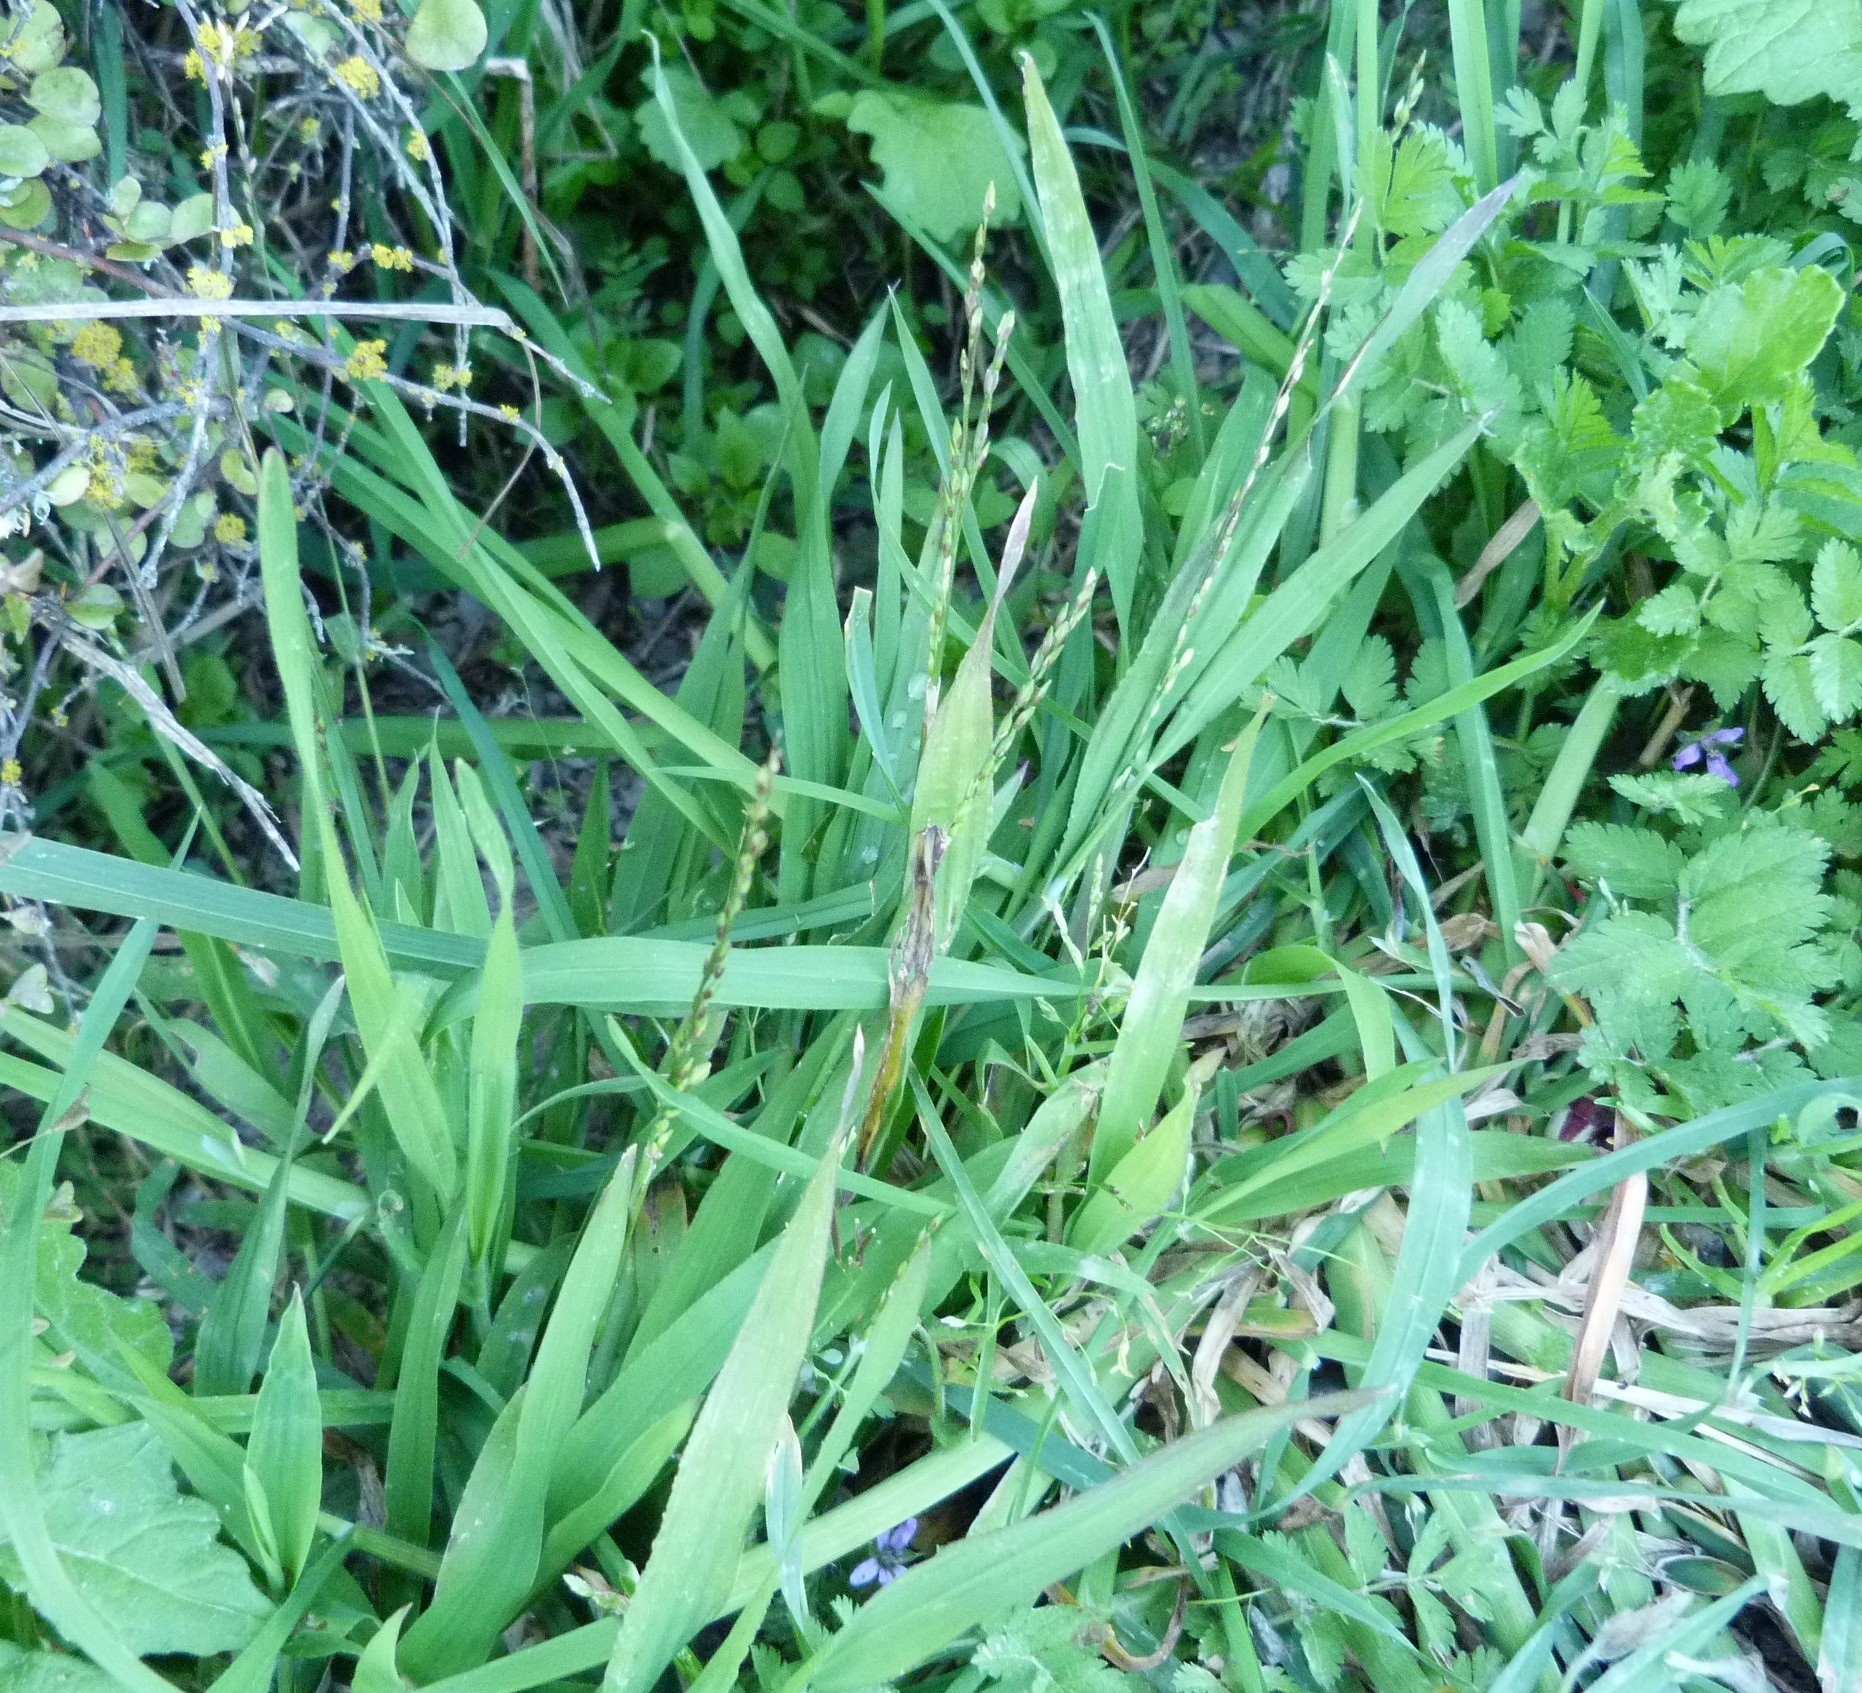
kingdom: Plantae
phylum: Tracheophyta
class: Liliopsida
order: Poales
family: Poaceae
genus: Ehrharta
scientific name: Ehrharta erecta
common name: Panic veldtgrass
